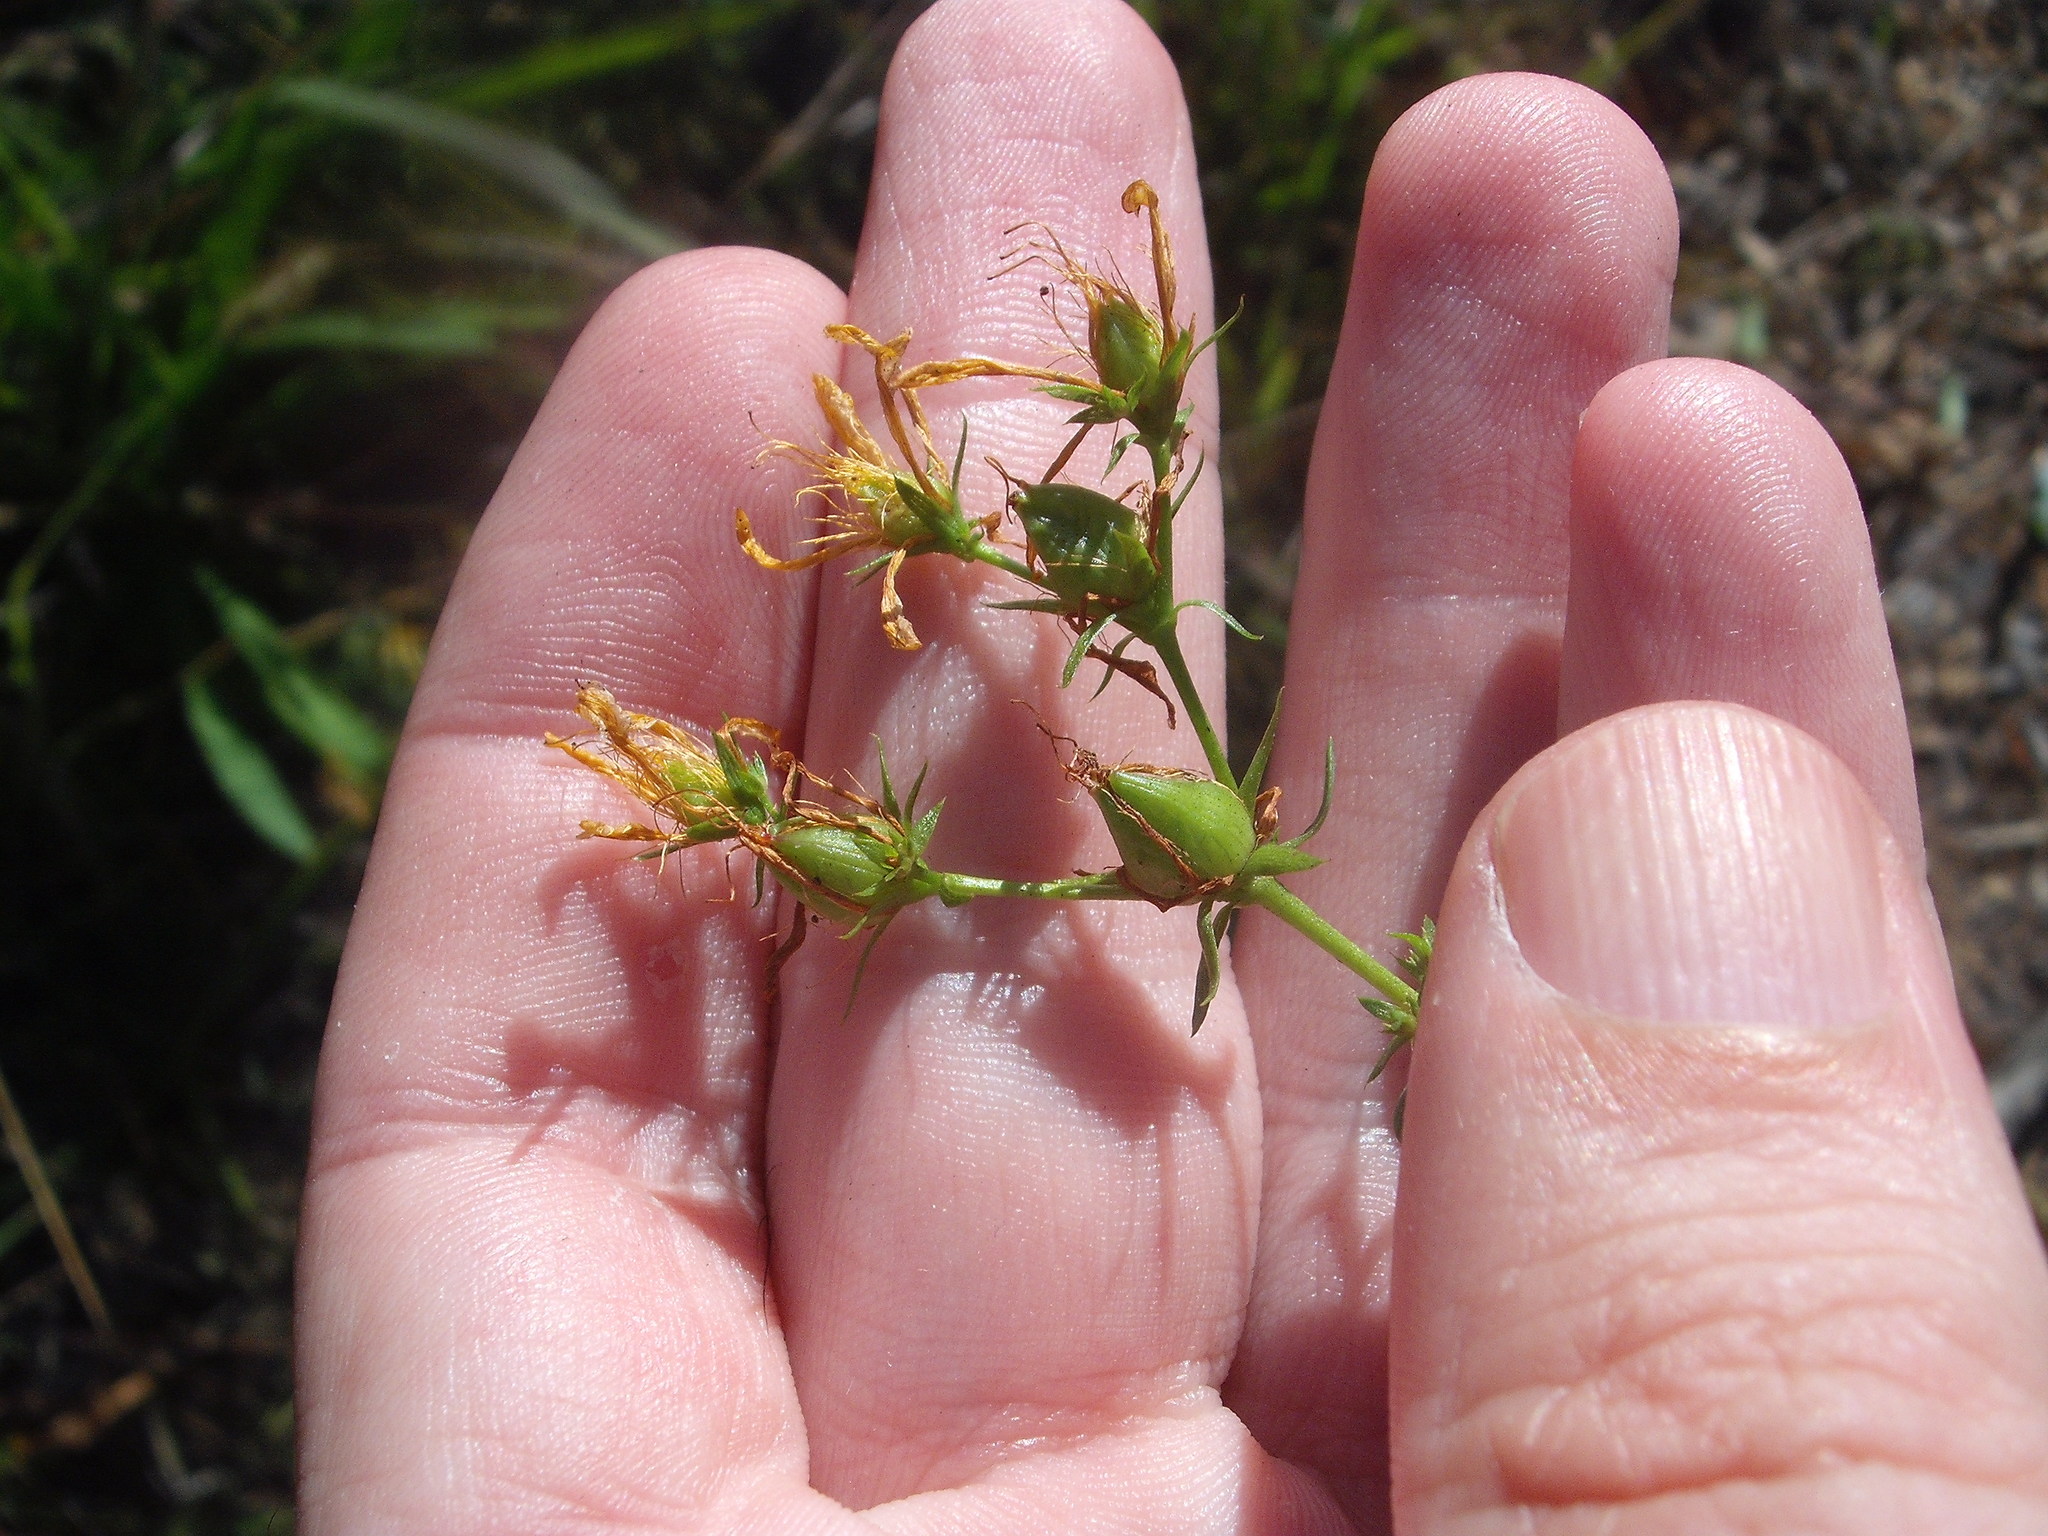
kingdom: Plantae
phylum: Tracheophyta
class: Magnoliopsida
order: Malpighiales
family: Hypericaceae
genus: Hypericum
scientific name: Hypericum perforatum
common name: Common st. johnswort
